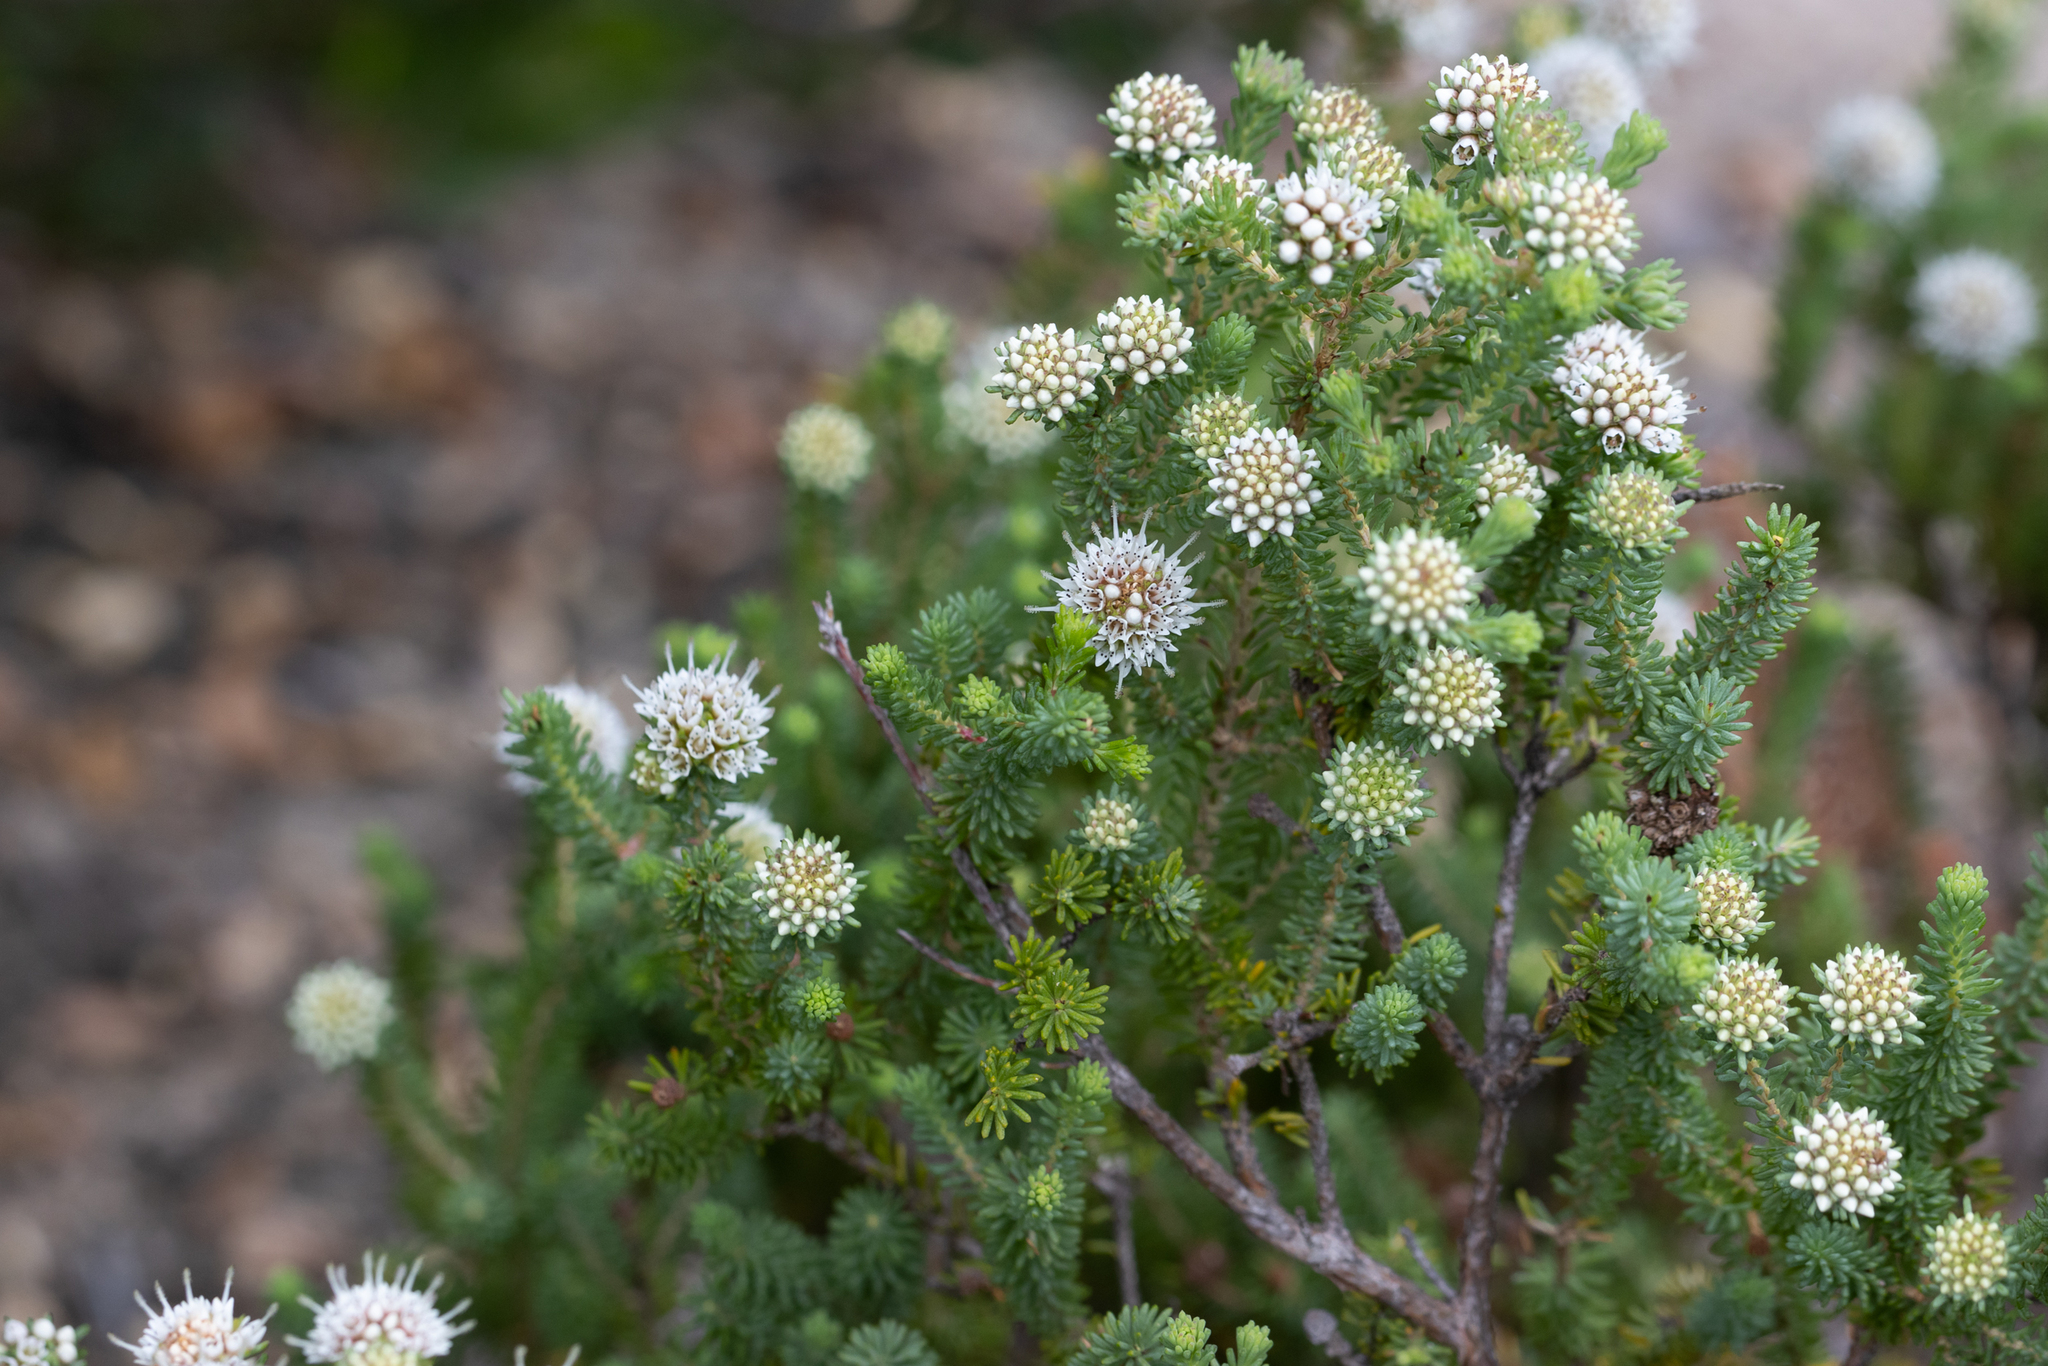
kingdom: Plantae
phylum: Tracheophyta
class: Magnoliopsida
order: Myrtales
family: Myrtaceae
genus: Darwinia
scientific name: Darwinia vestita
